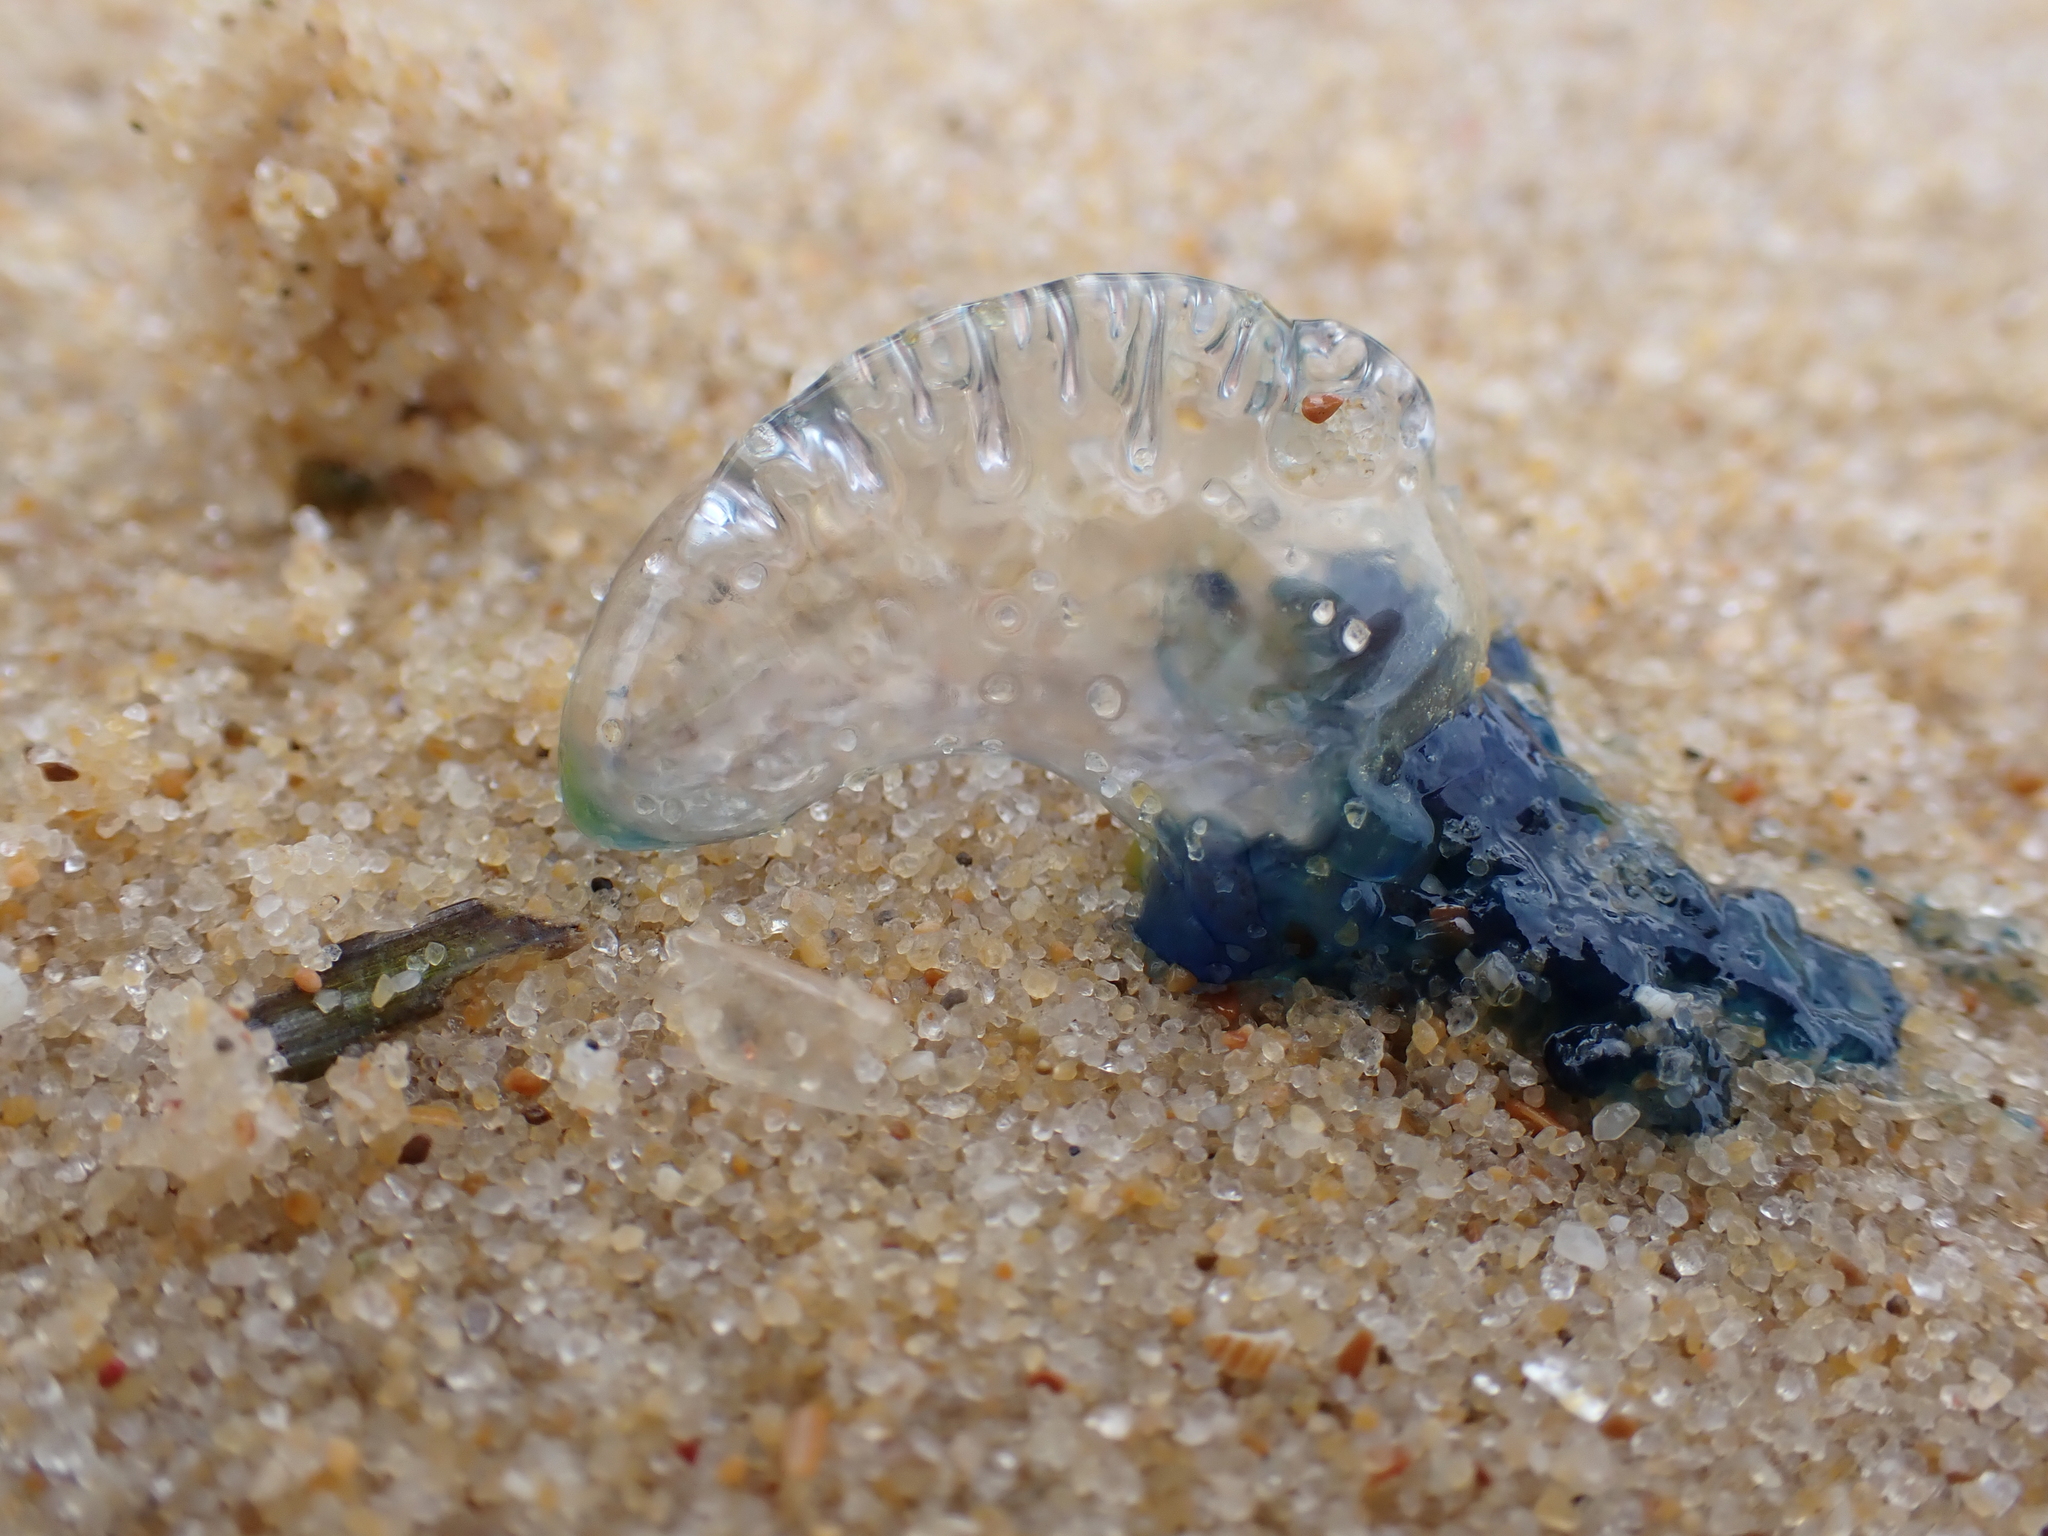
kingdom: Animalia
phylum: Cnidaria
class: Hydrozoa
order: Siphonophorae
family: Physaliidae
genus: Physalia
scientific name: Physalia physalis
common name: Portuguese man-of-war
